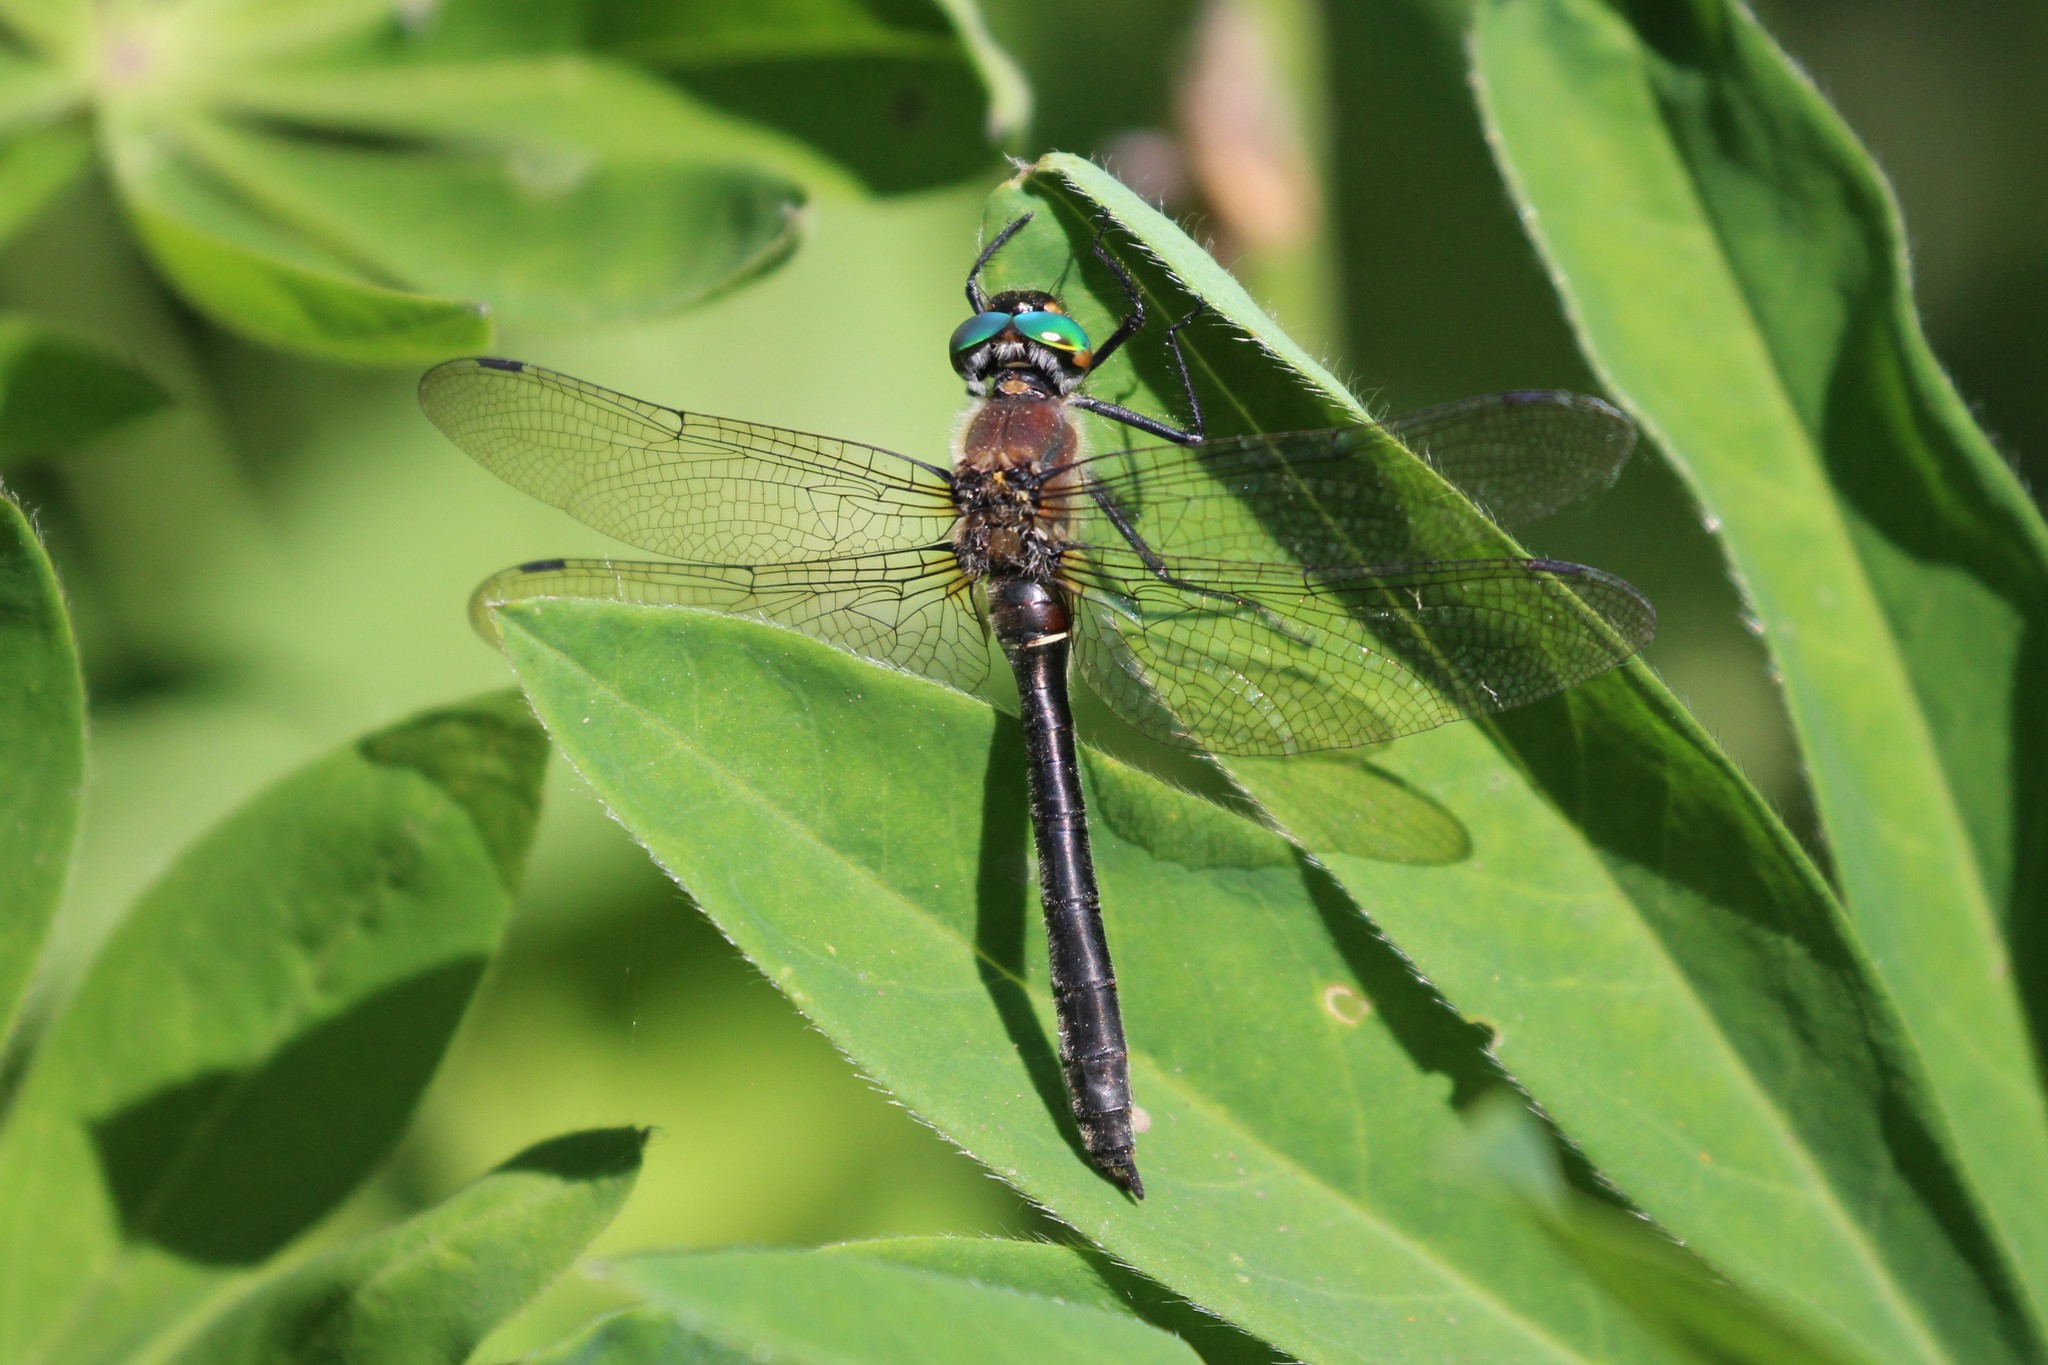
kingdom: Animalia
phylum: Arthropoda
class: Insecta
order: Odonata
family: Corduliidae
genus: Cordulia
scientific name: Cordulia shurtleffii
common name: American emerald
